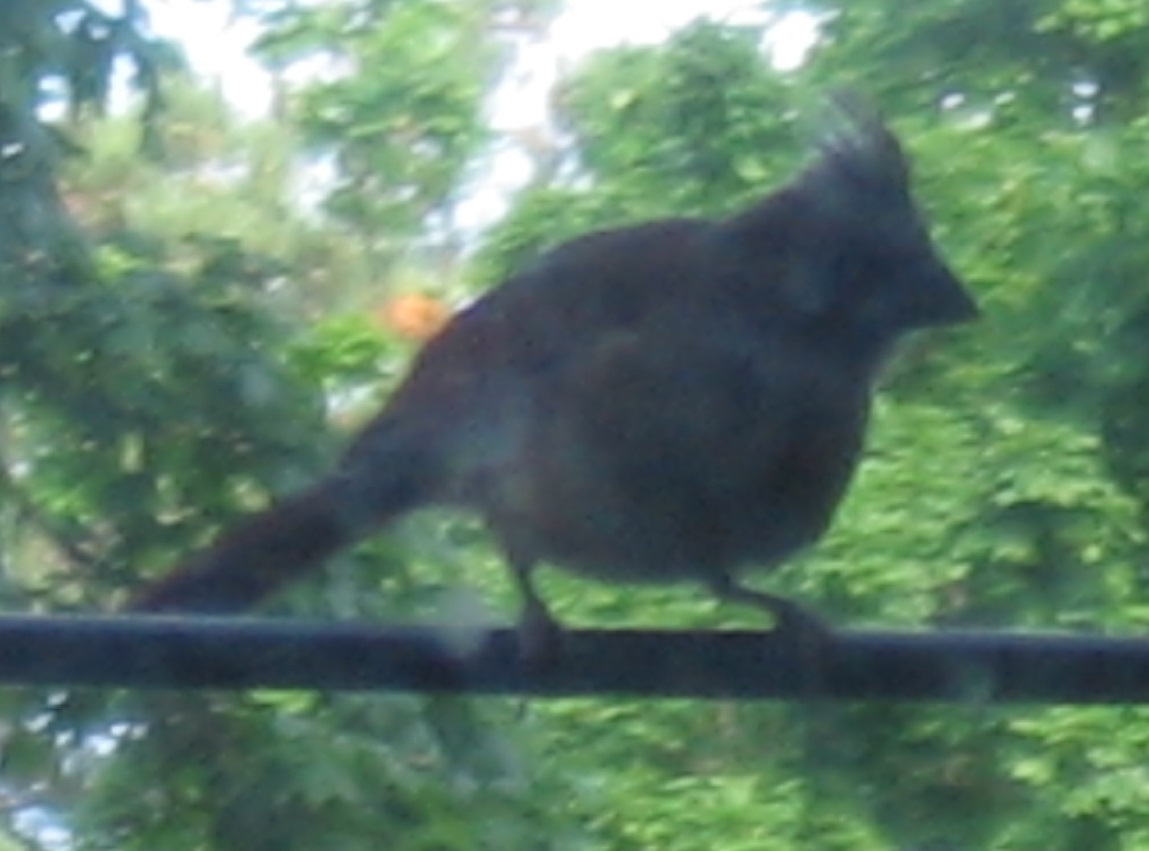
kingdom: Animalia
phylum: Chordata
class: Aves
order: Passeriformes
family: Cardinalidae
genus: Cardinalis
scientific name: Cardinalis cardinalis
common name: Northern cardinal
